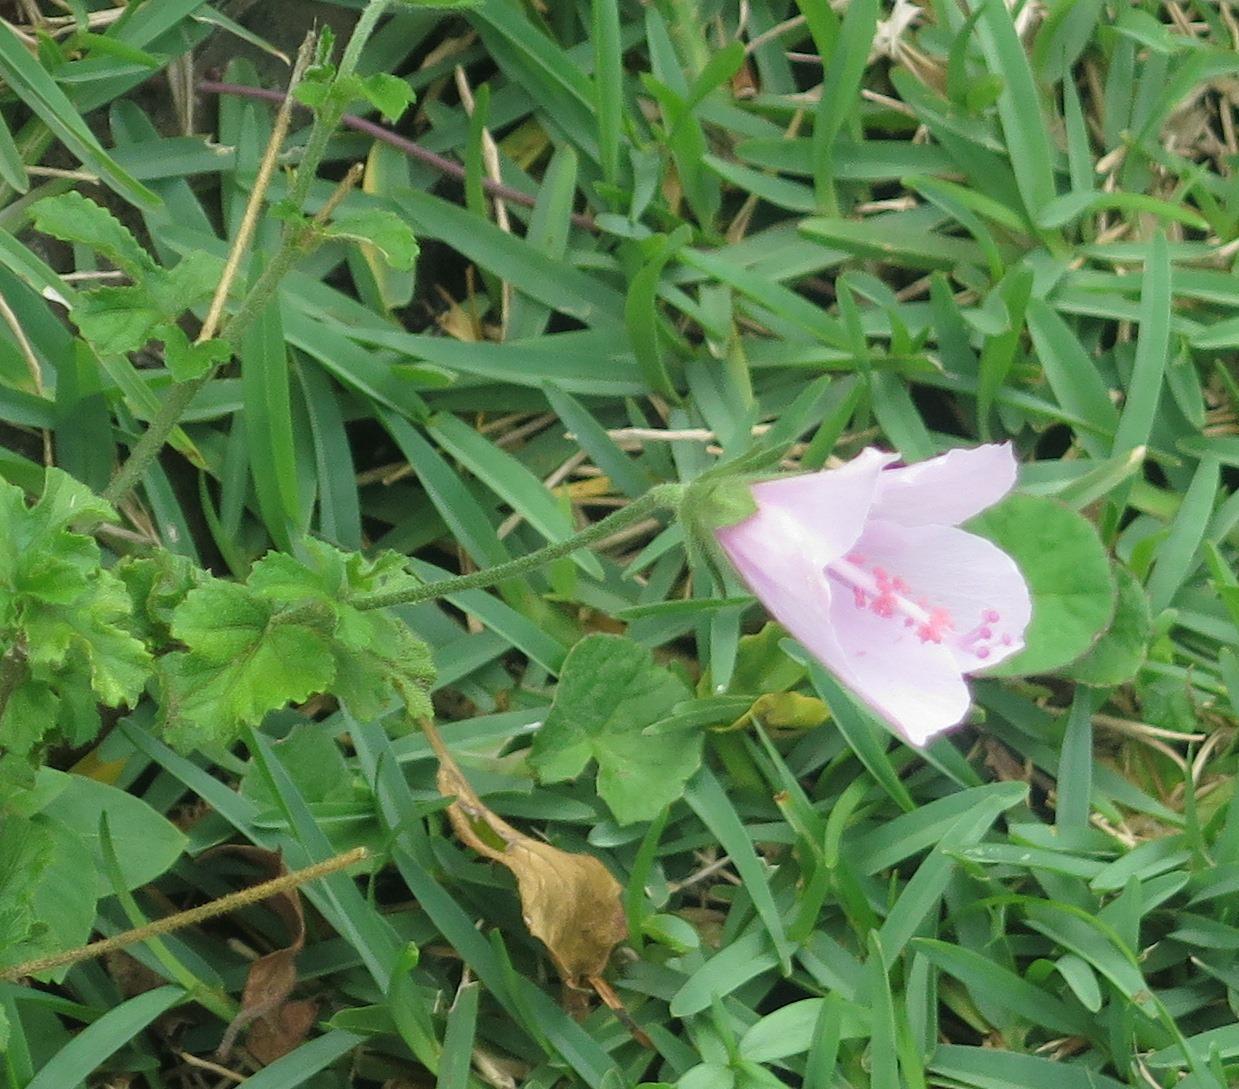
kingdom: Plantae
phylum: Tracheophyta
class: Magnoliopsida
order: Malvales
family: Malvaceae
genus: Hibiscus
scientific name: Hibiscus pedunculatus
